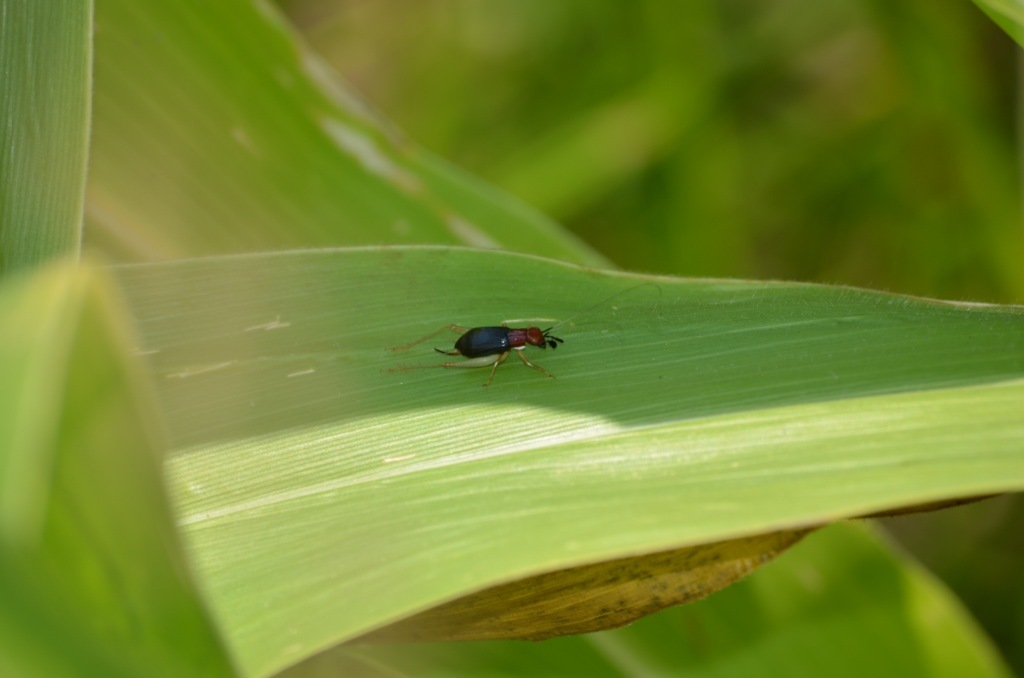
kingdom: Animalia
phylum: Arthropoda
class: Insecta
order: Orthoptera
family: Trigonidiidae
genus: Phyllopalpus
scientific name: Phyllopalpus pulchellus
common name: Handsome trig
